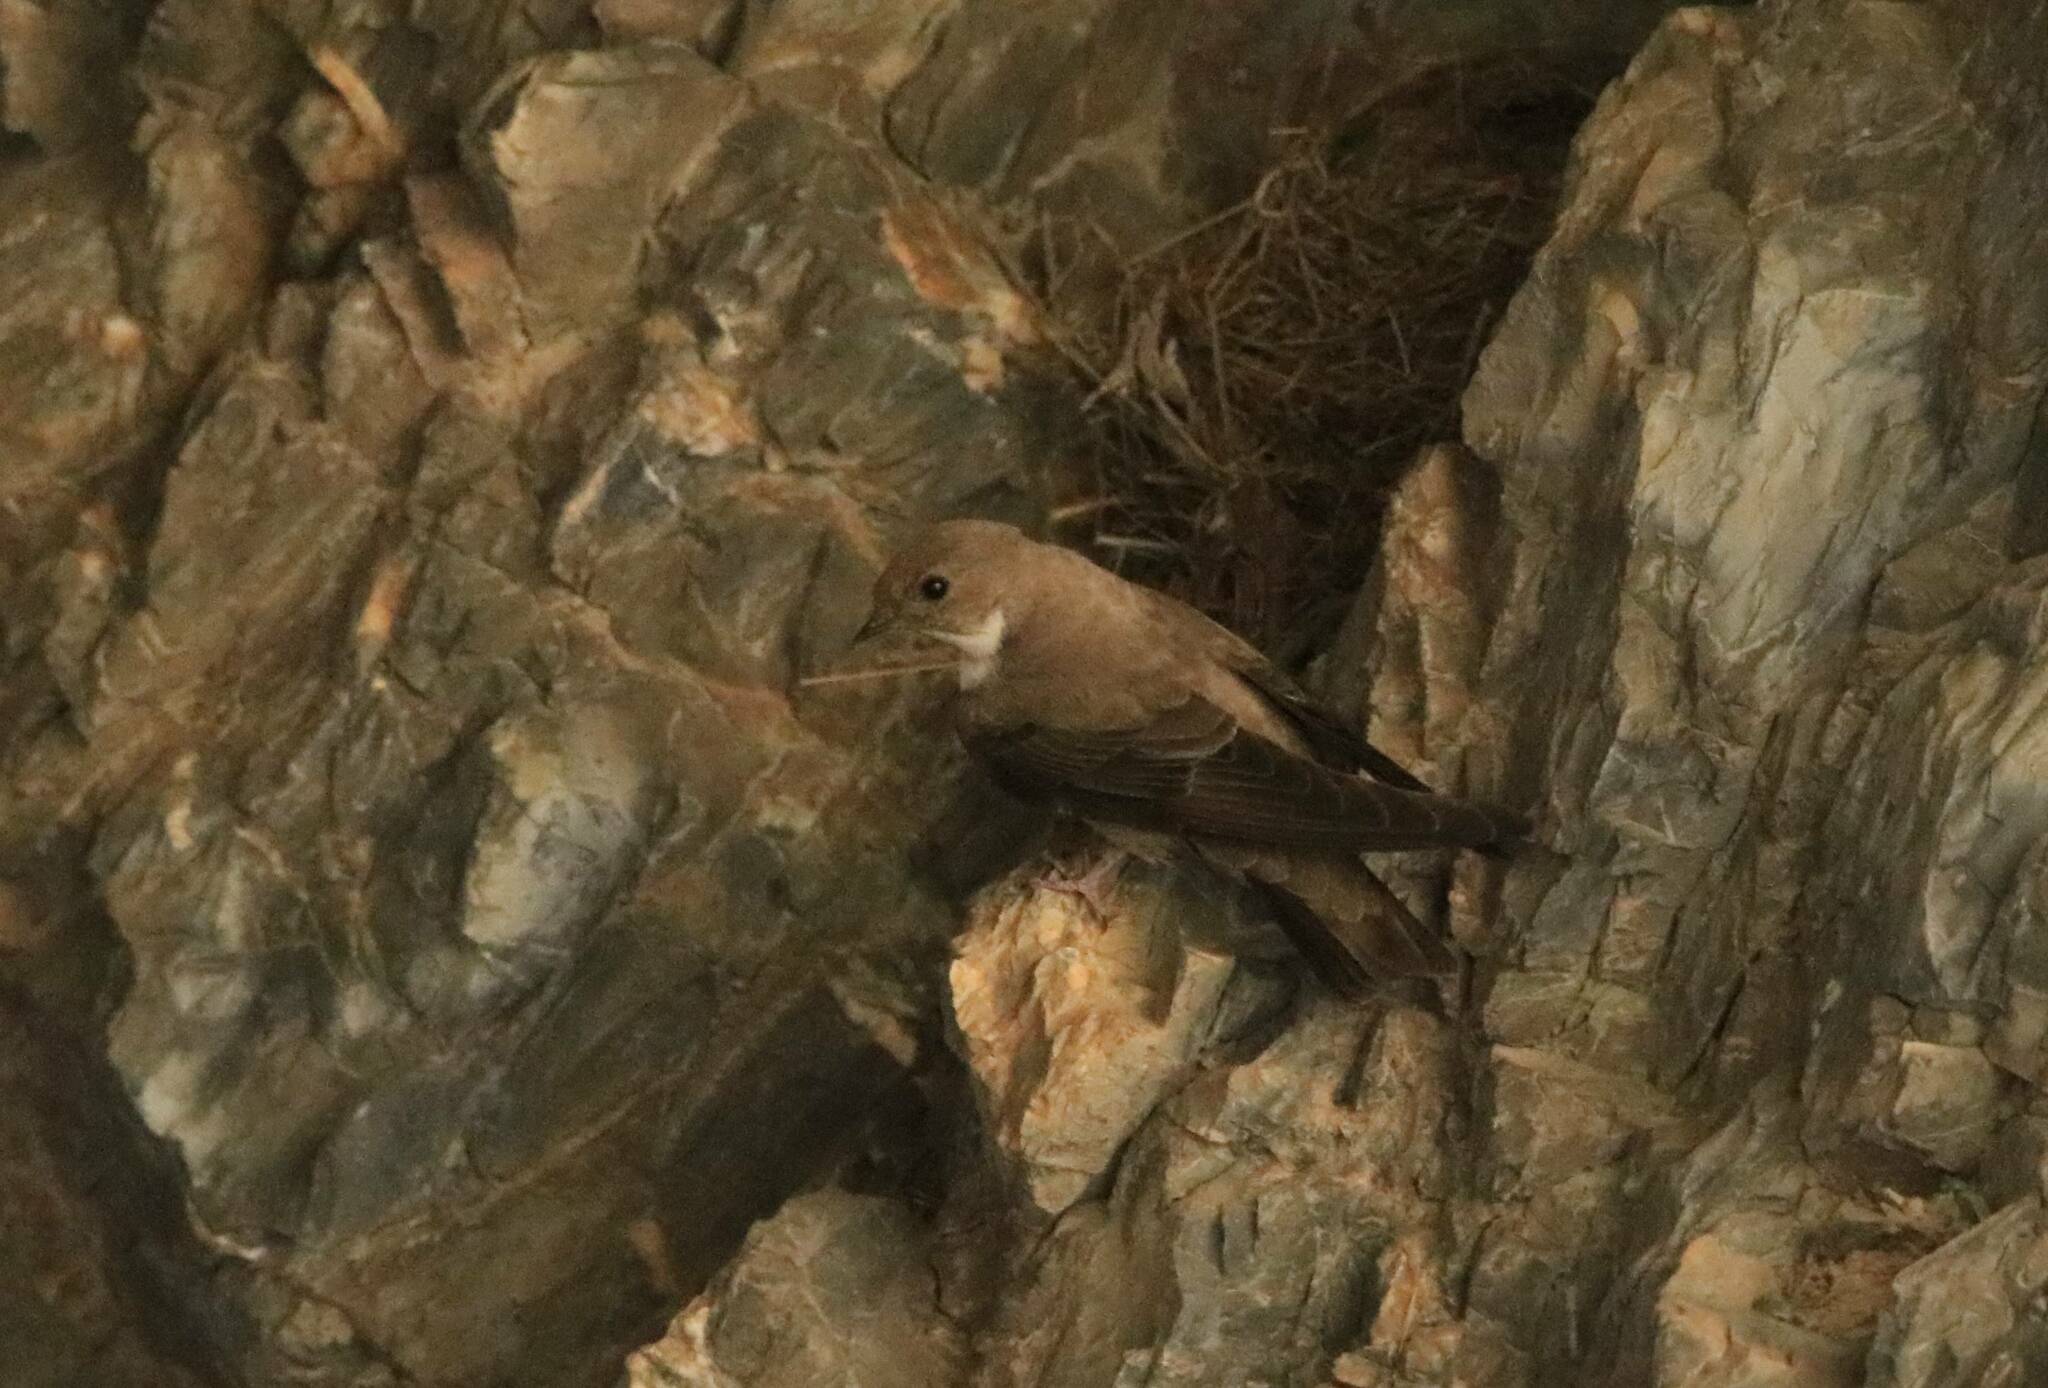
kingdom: Animalia
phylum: Chordata
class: Aves
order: Passeriformes
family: Hirundinidae
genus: Ptyonoprogne
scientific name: Ptyonoprogne rupestris
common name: Eurasian crag martin
